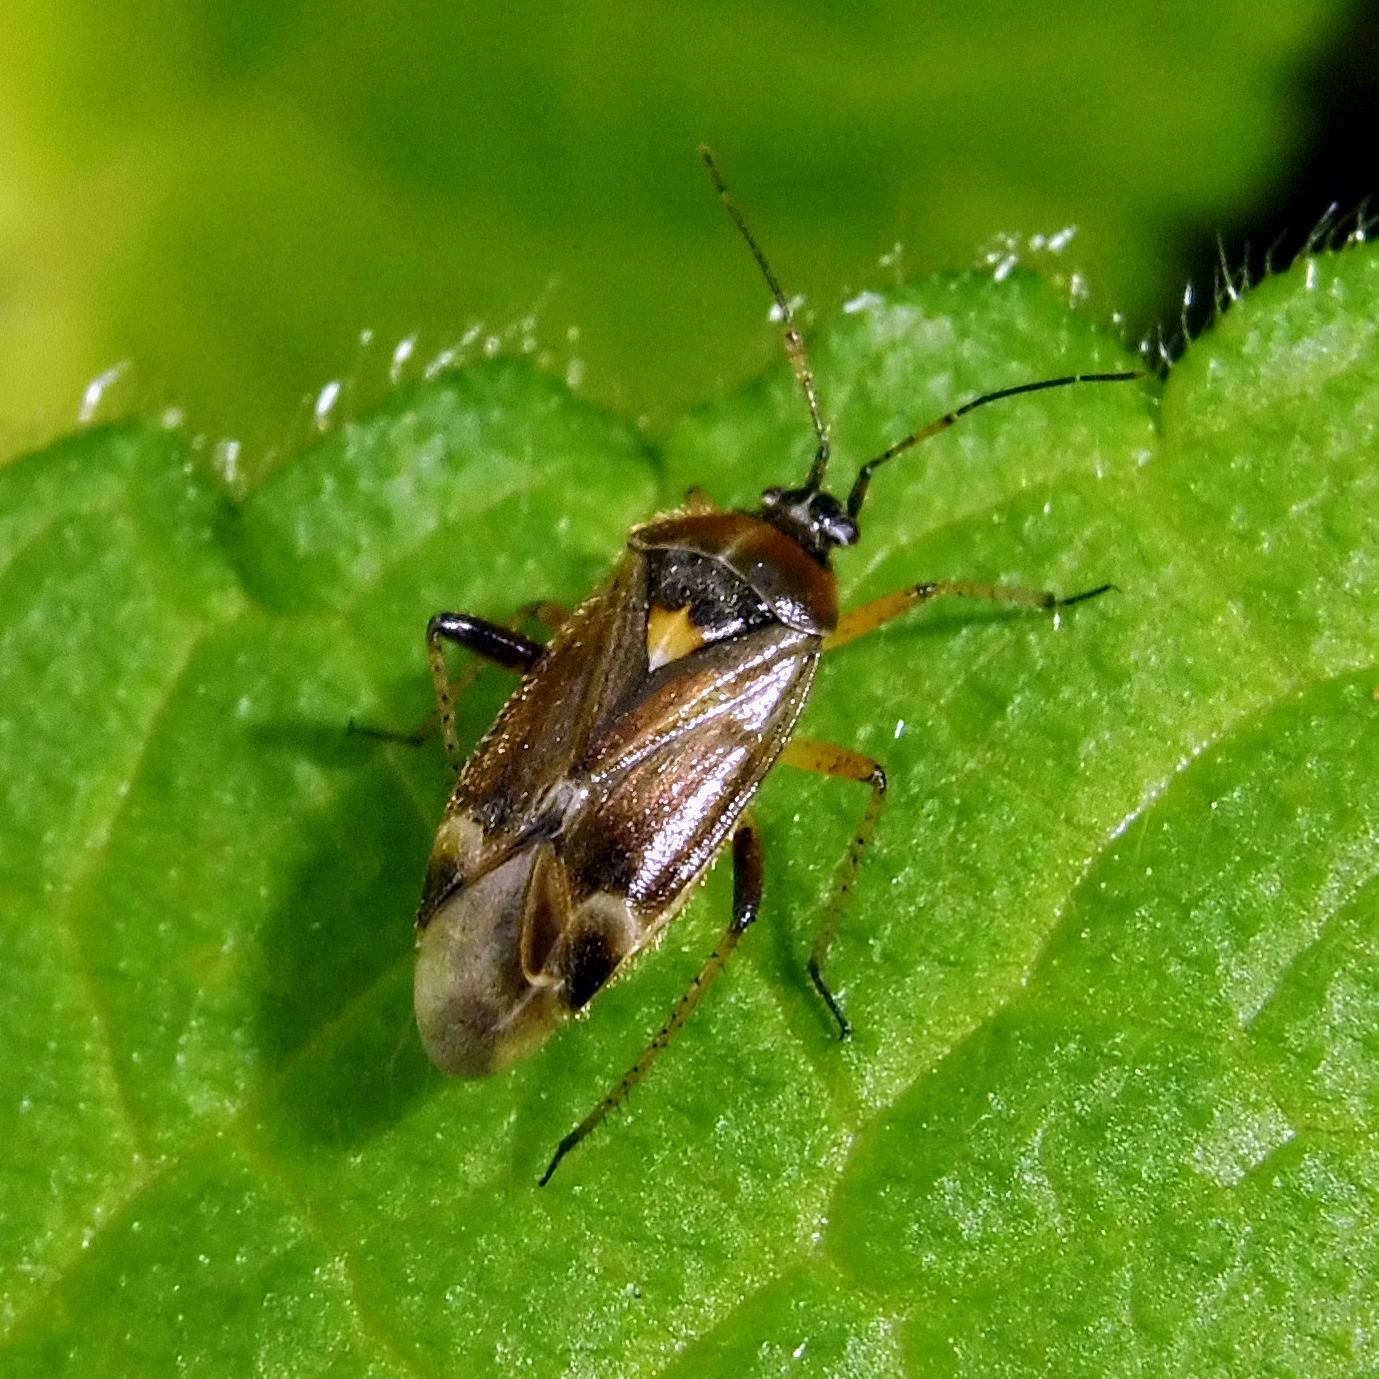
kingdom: Animalia
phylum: Arthropoda
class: Insecta
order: Hemiptera
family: Miridae
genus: Harpocera
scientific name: Harpocera thoracica
